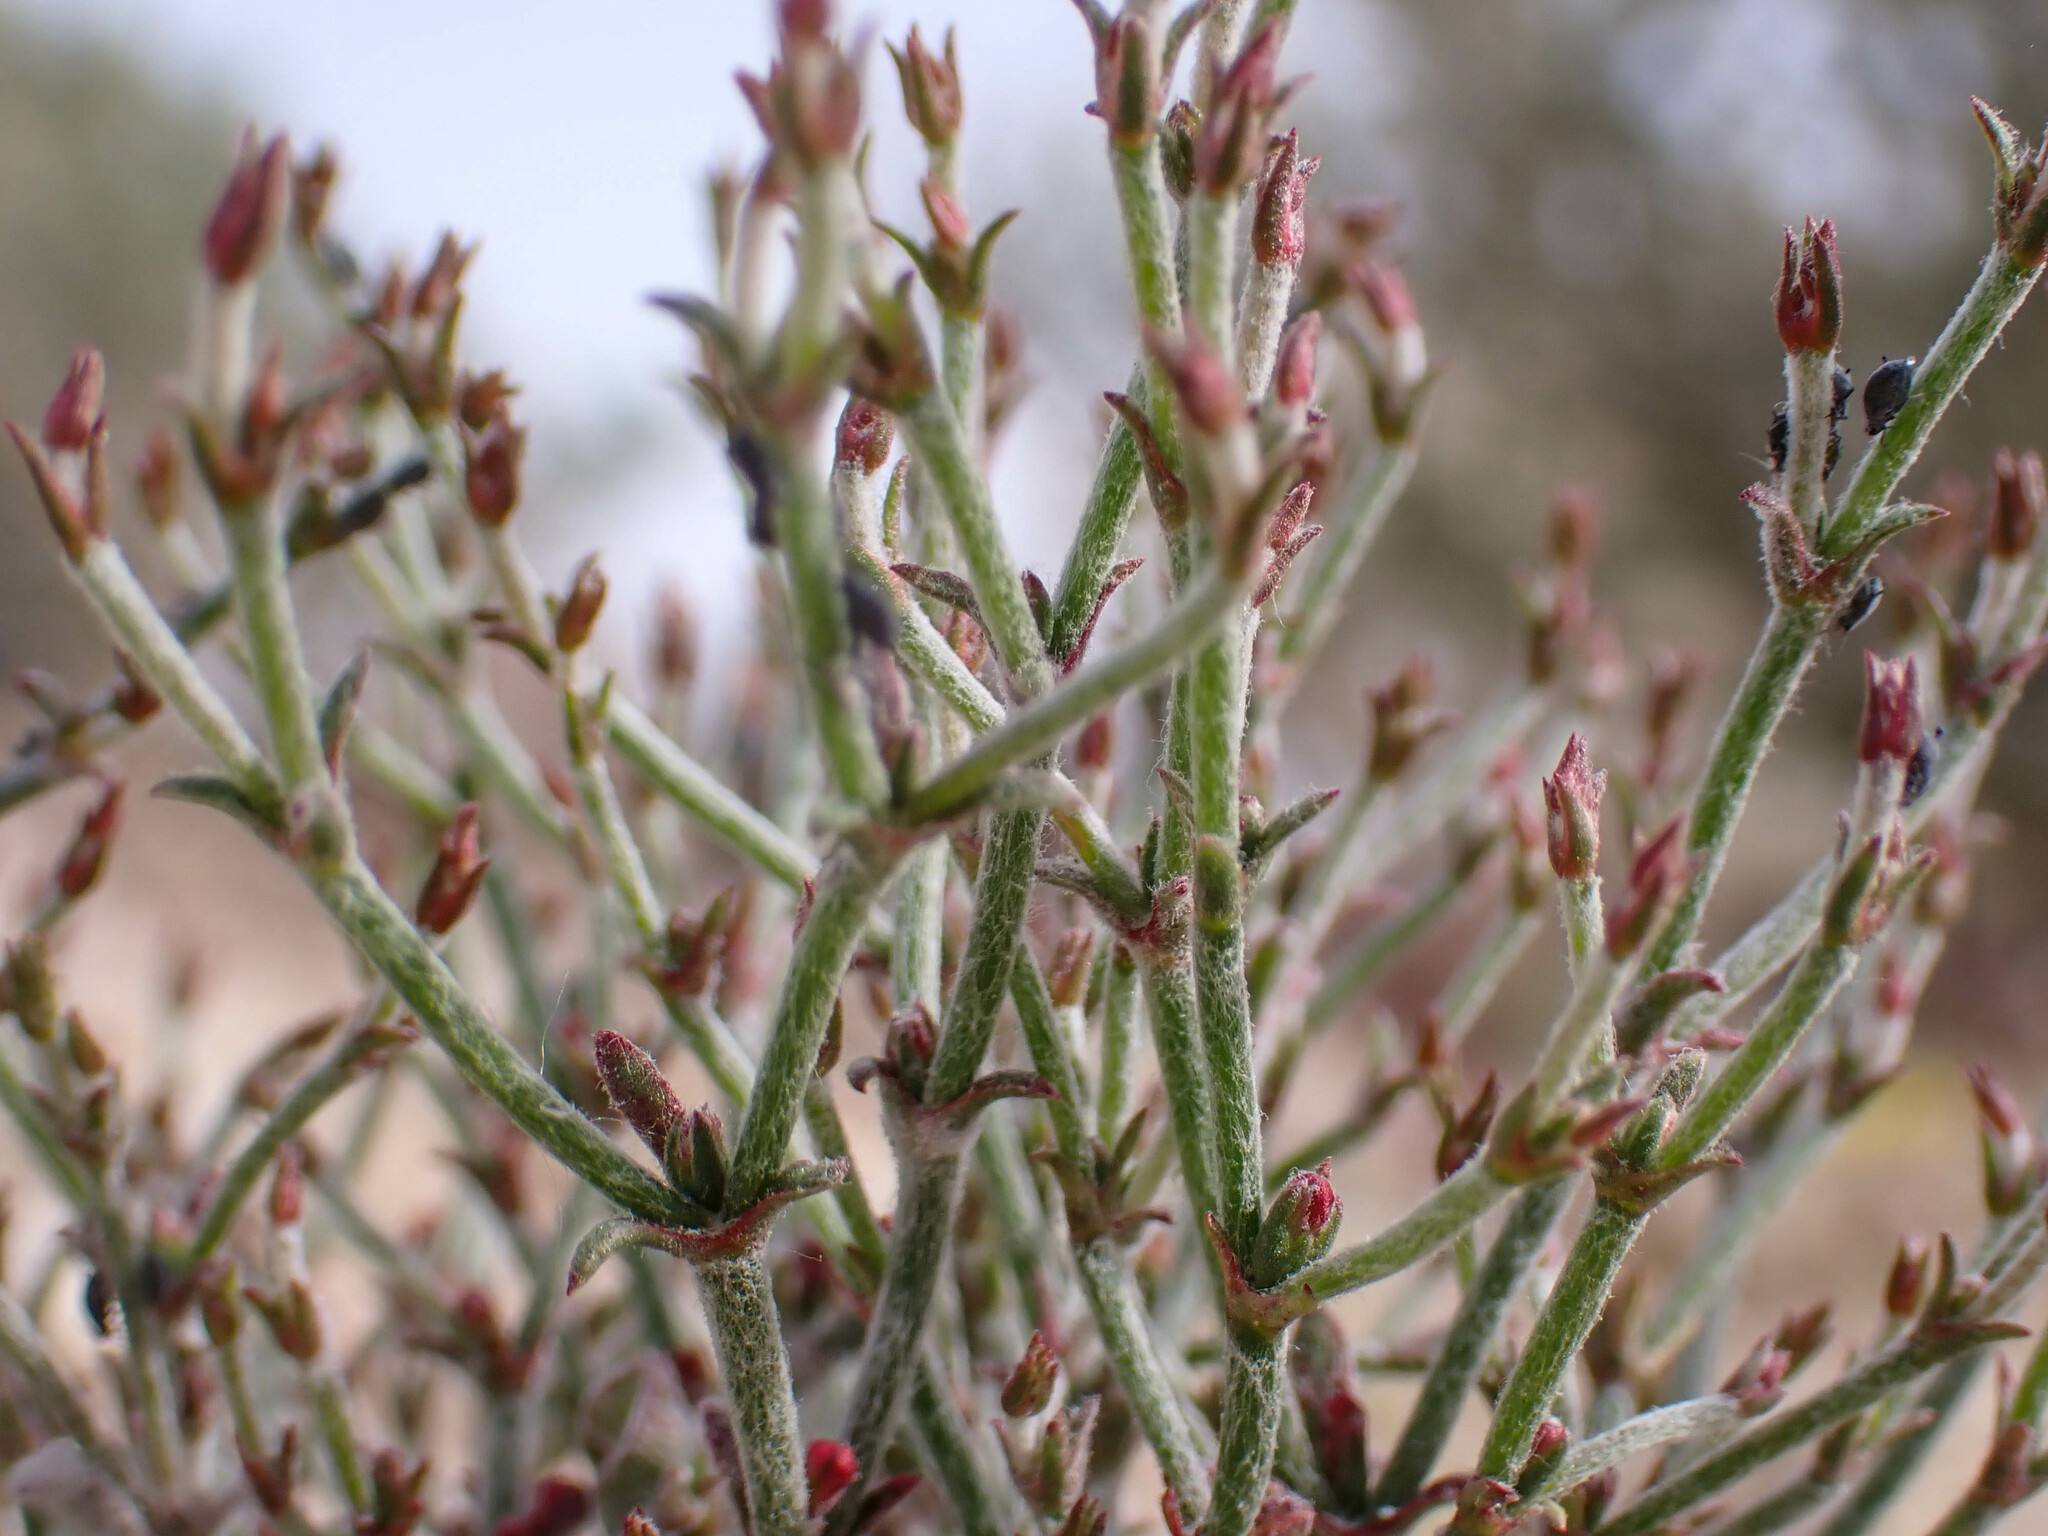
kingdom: Plantae
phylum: Tracheophyta
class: Magnoliopsida
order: Caryophyllales
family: Polygonaceae
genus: Eriogonum
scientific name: Eriogonum nidularium
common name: Bird's-nest wild buckwheat
